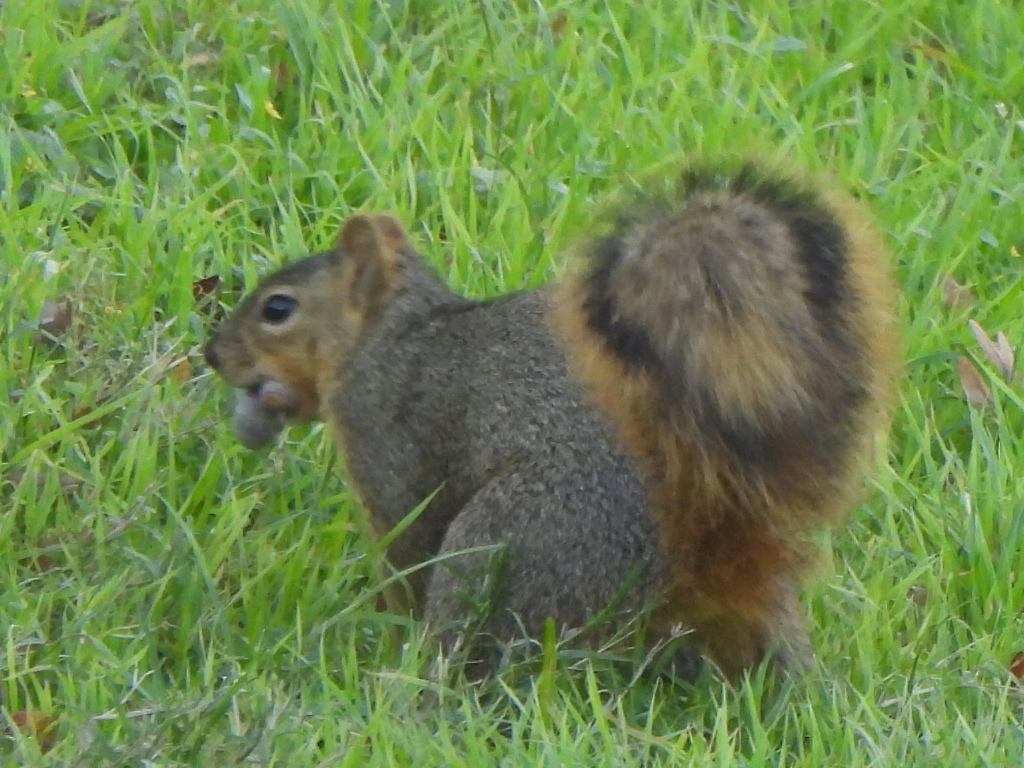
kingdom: Animalia
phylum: Chordata
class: Mammalia
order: Rodentia
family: Sciuridae
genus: Sciurus
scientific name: Sciurus niger
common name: Fox squirrel
